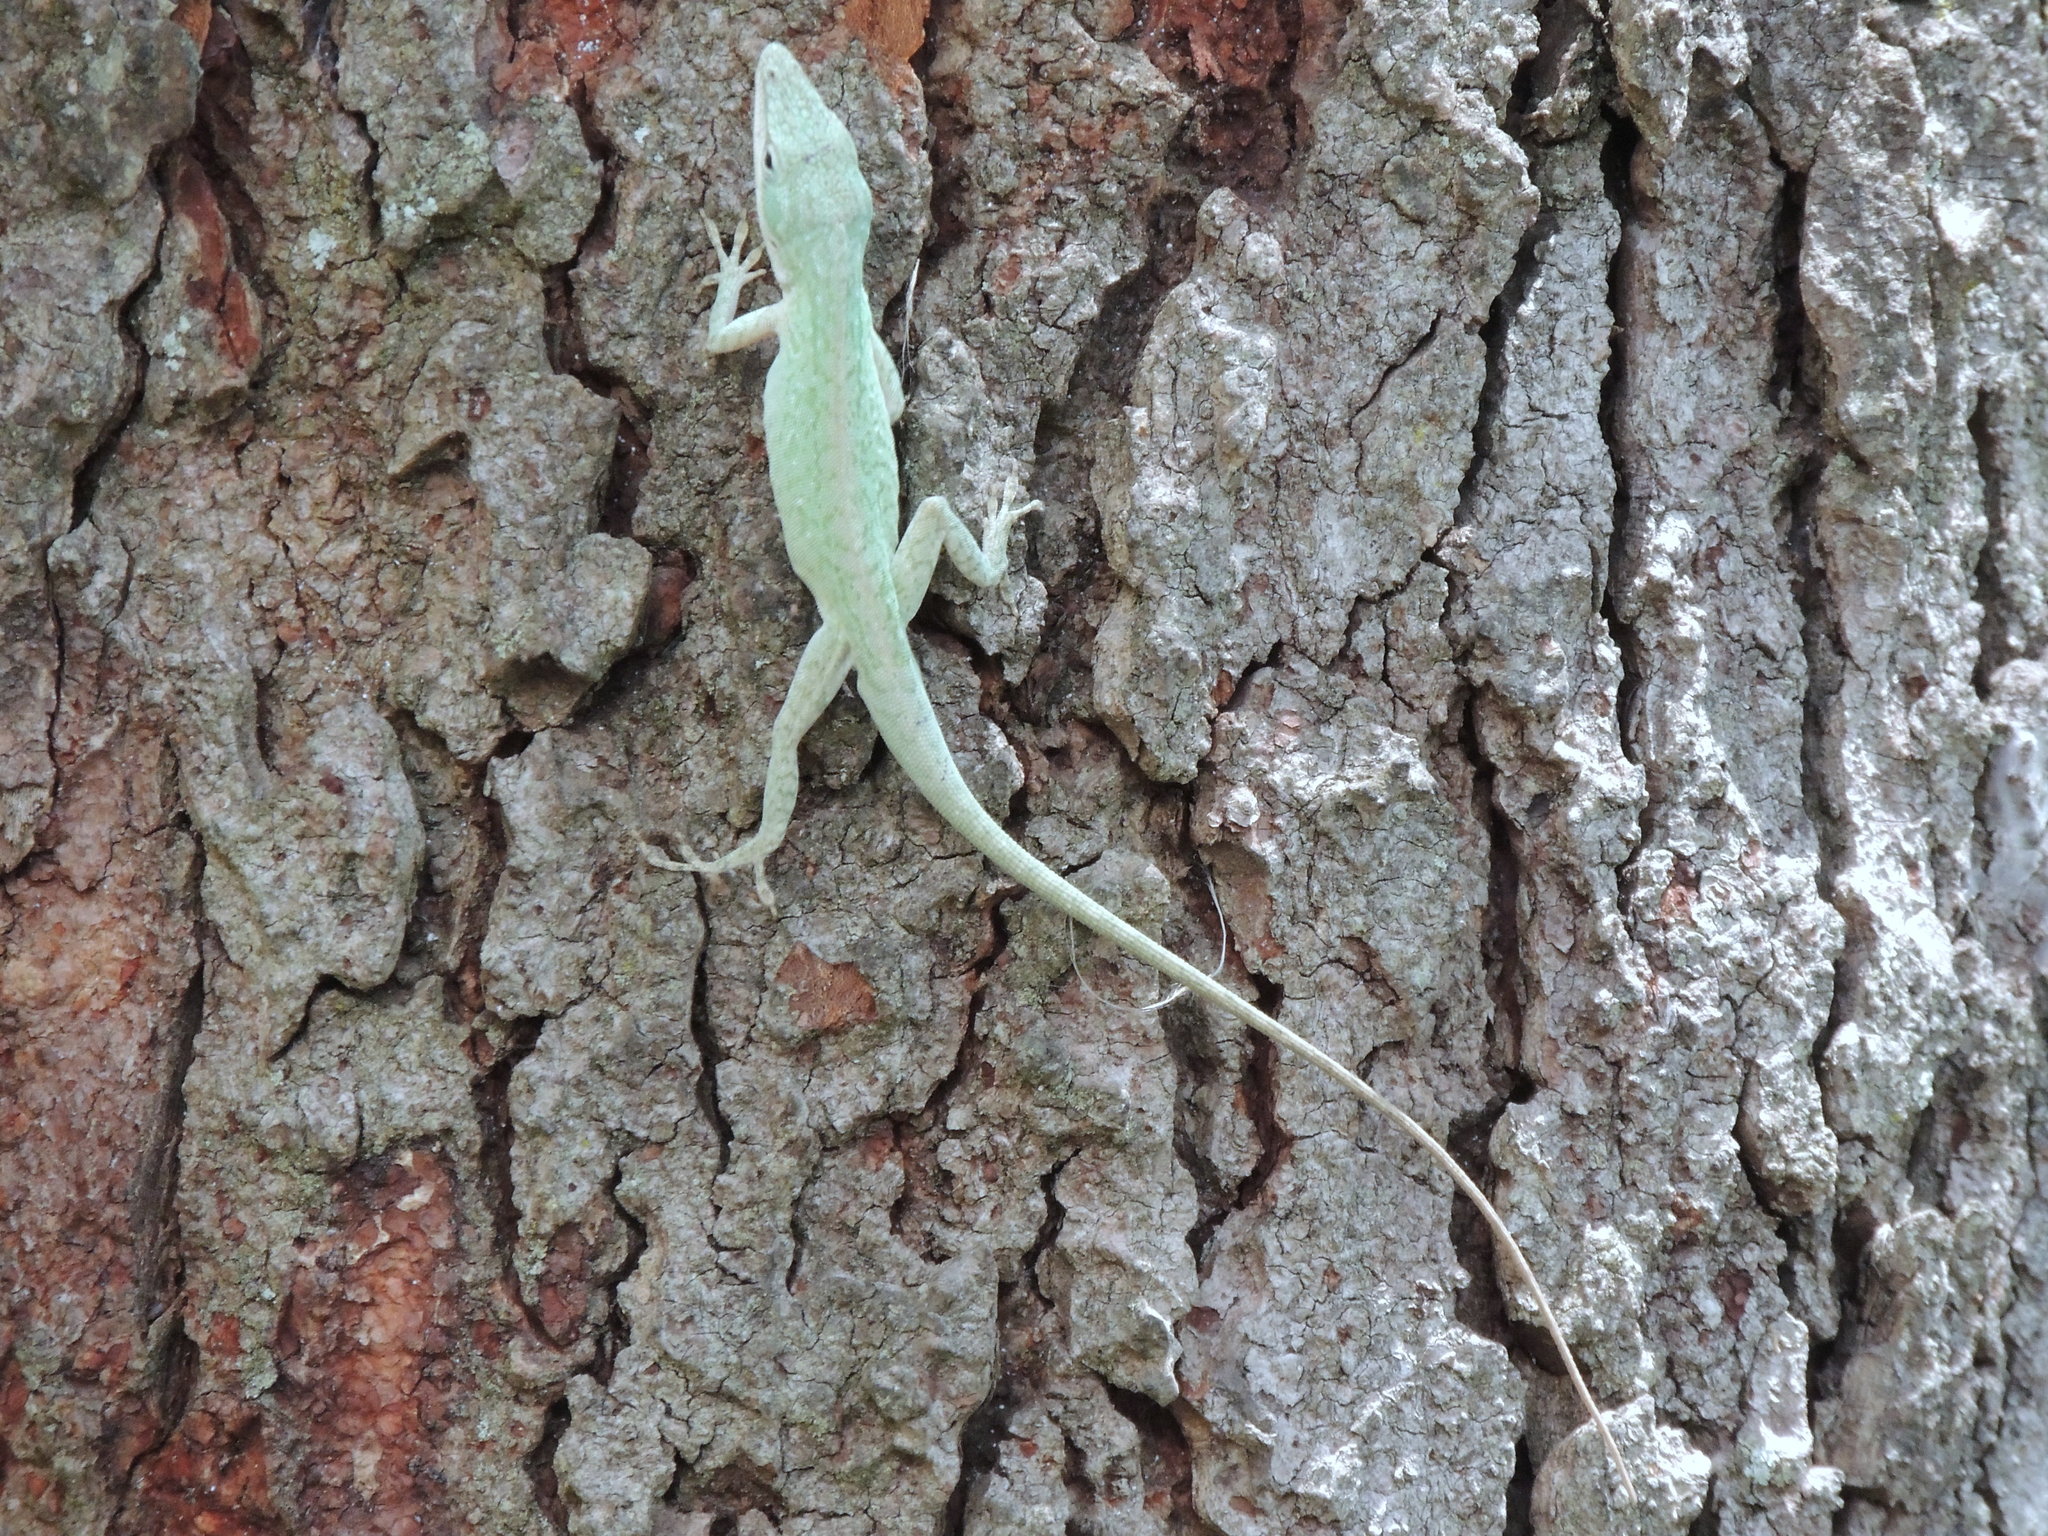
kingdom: Animalia
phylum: Chordata
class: Squamata
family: Dactyloidae
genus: Anolis
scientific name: Anolis carolinensis
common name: Green anole
